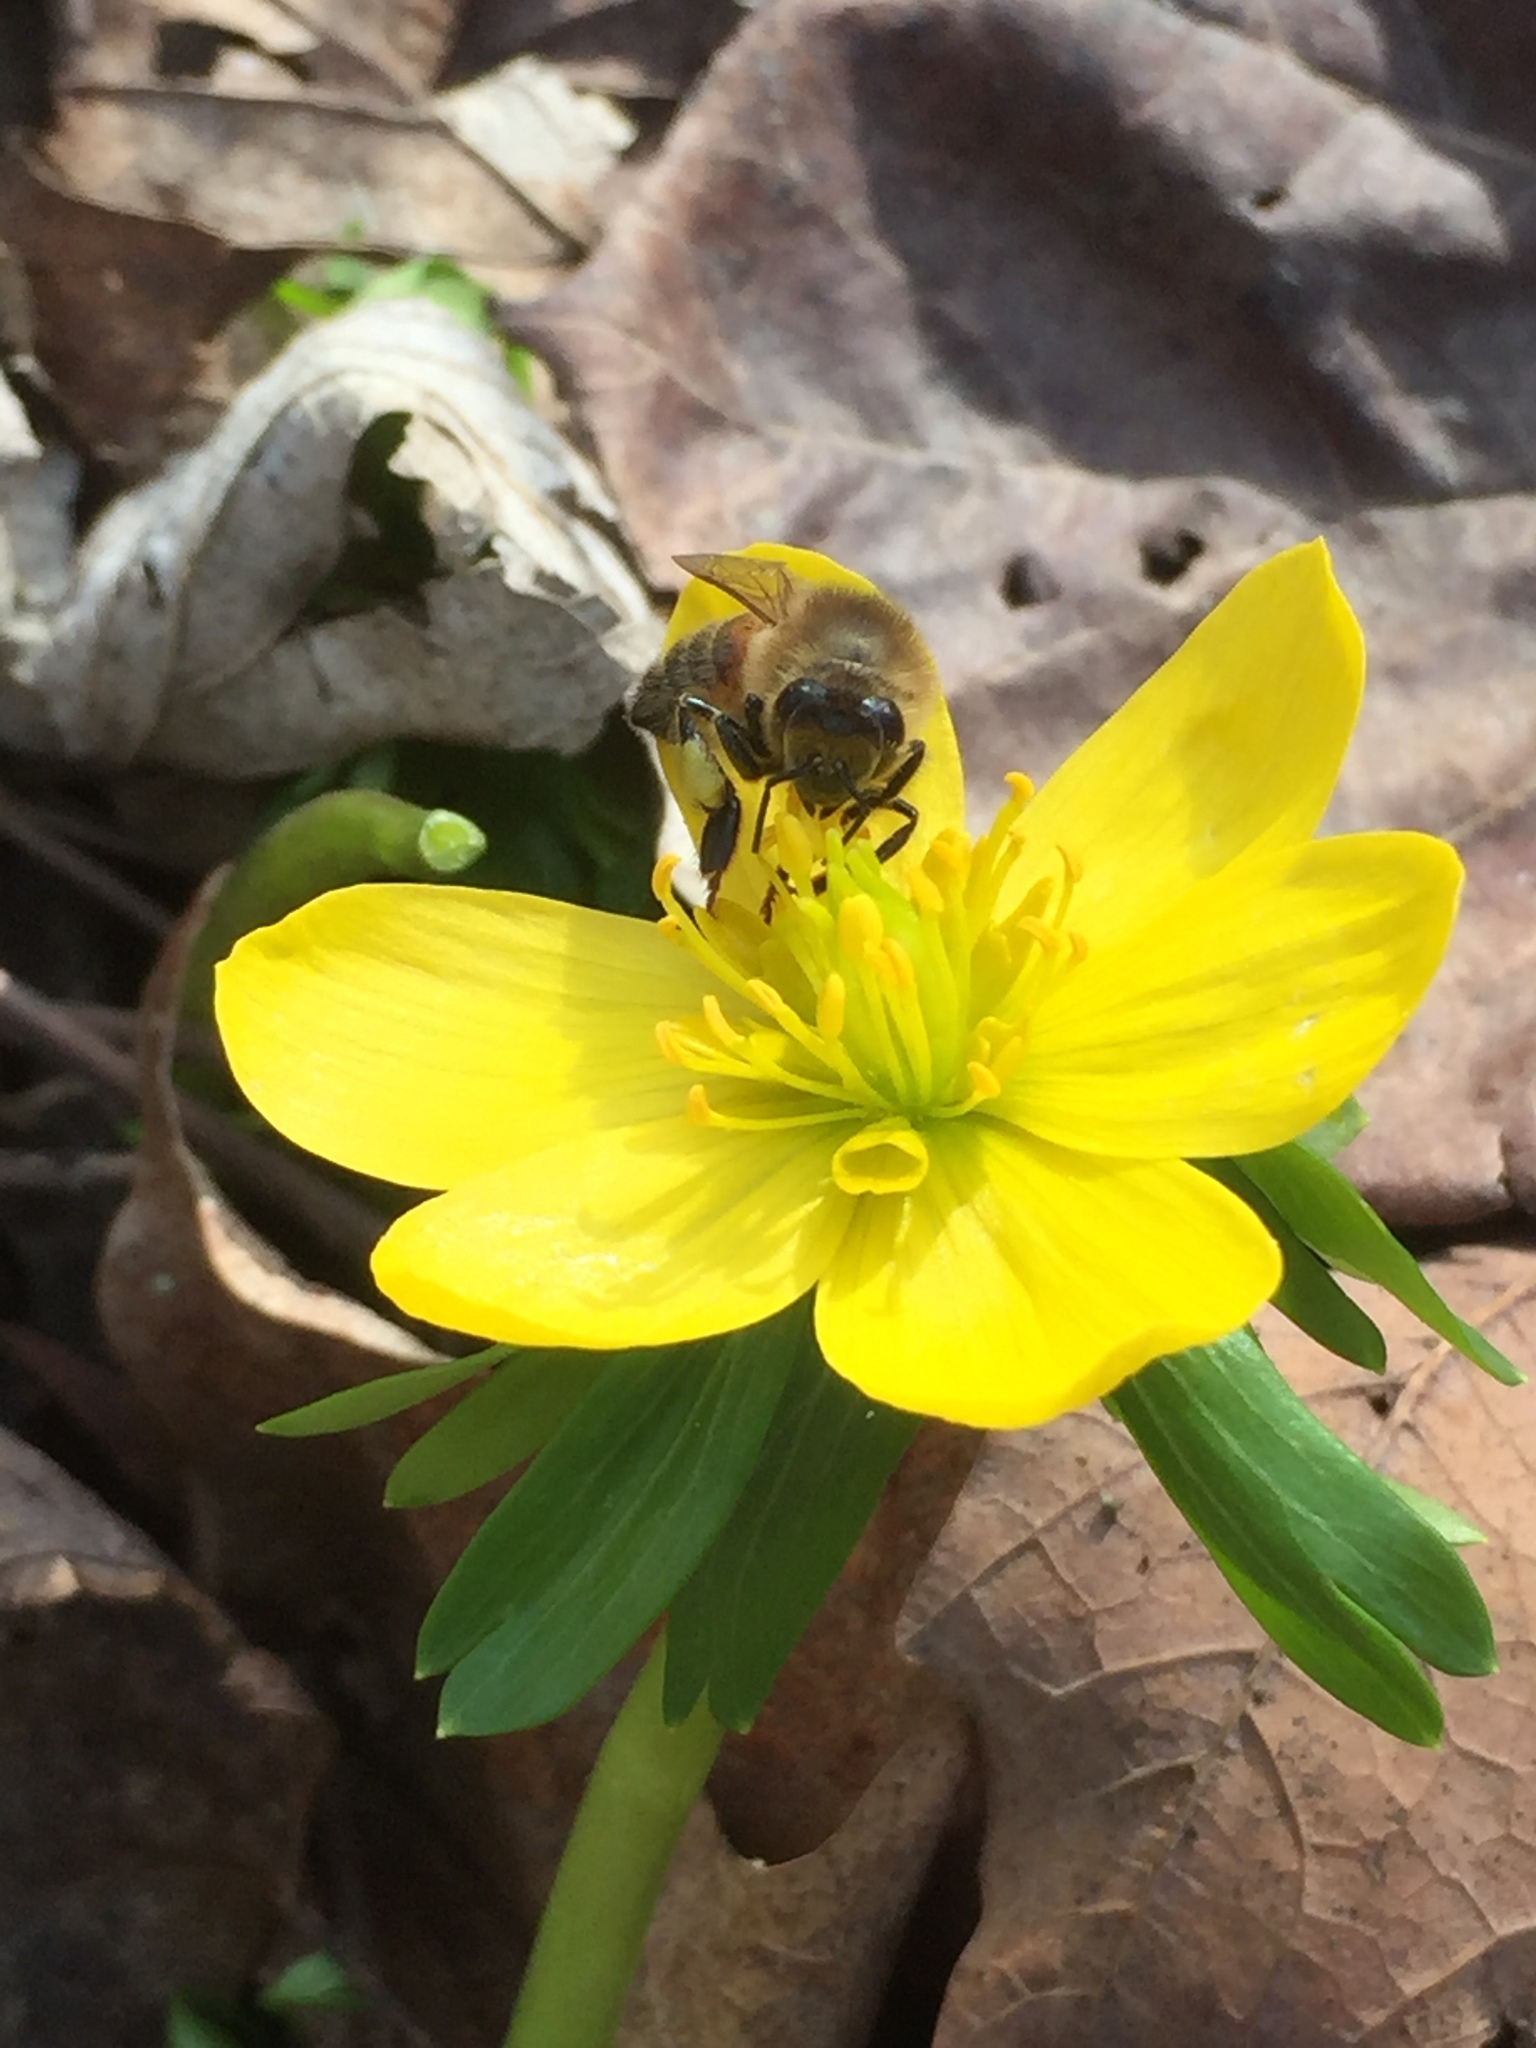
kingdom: Animalia
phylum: Arthropoda
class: Insecta
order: Hymenoptera
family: Apidae
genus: Apis
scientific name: Apis mellifera
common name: Honey bee
